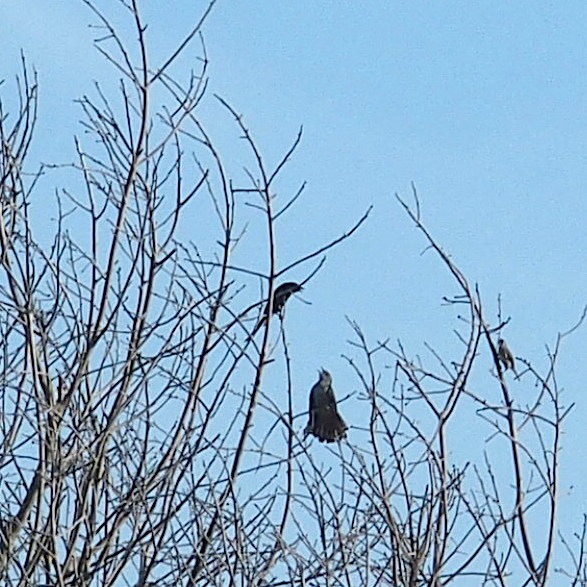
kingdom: Animalia
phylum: Chordata
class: Aves
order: Passeriformes
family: Dicruridae
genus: Dicrurus
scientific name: Dicrurus macrocercus
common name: Black drongo
